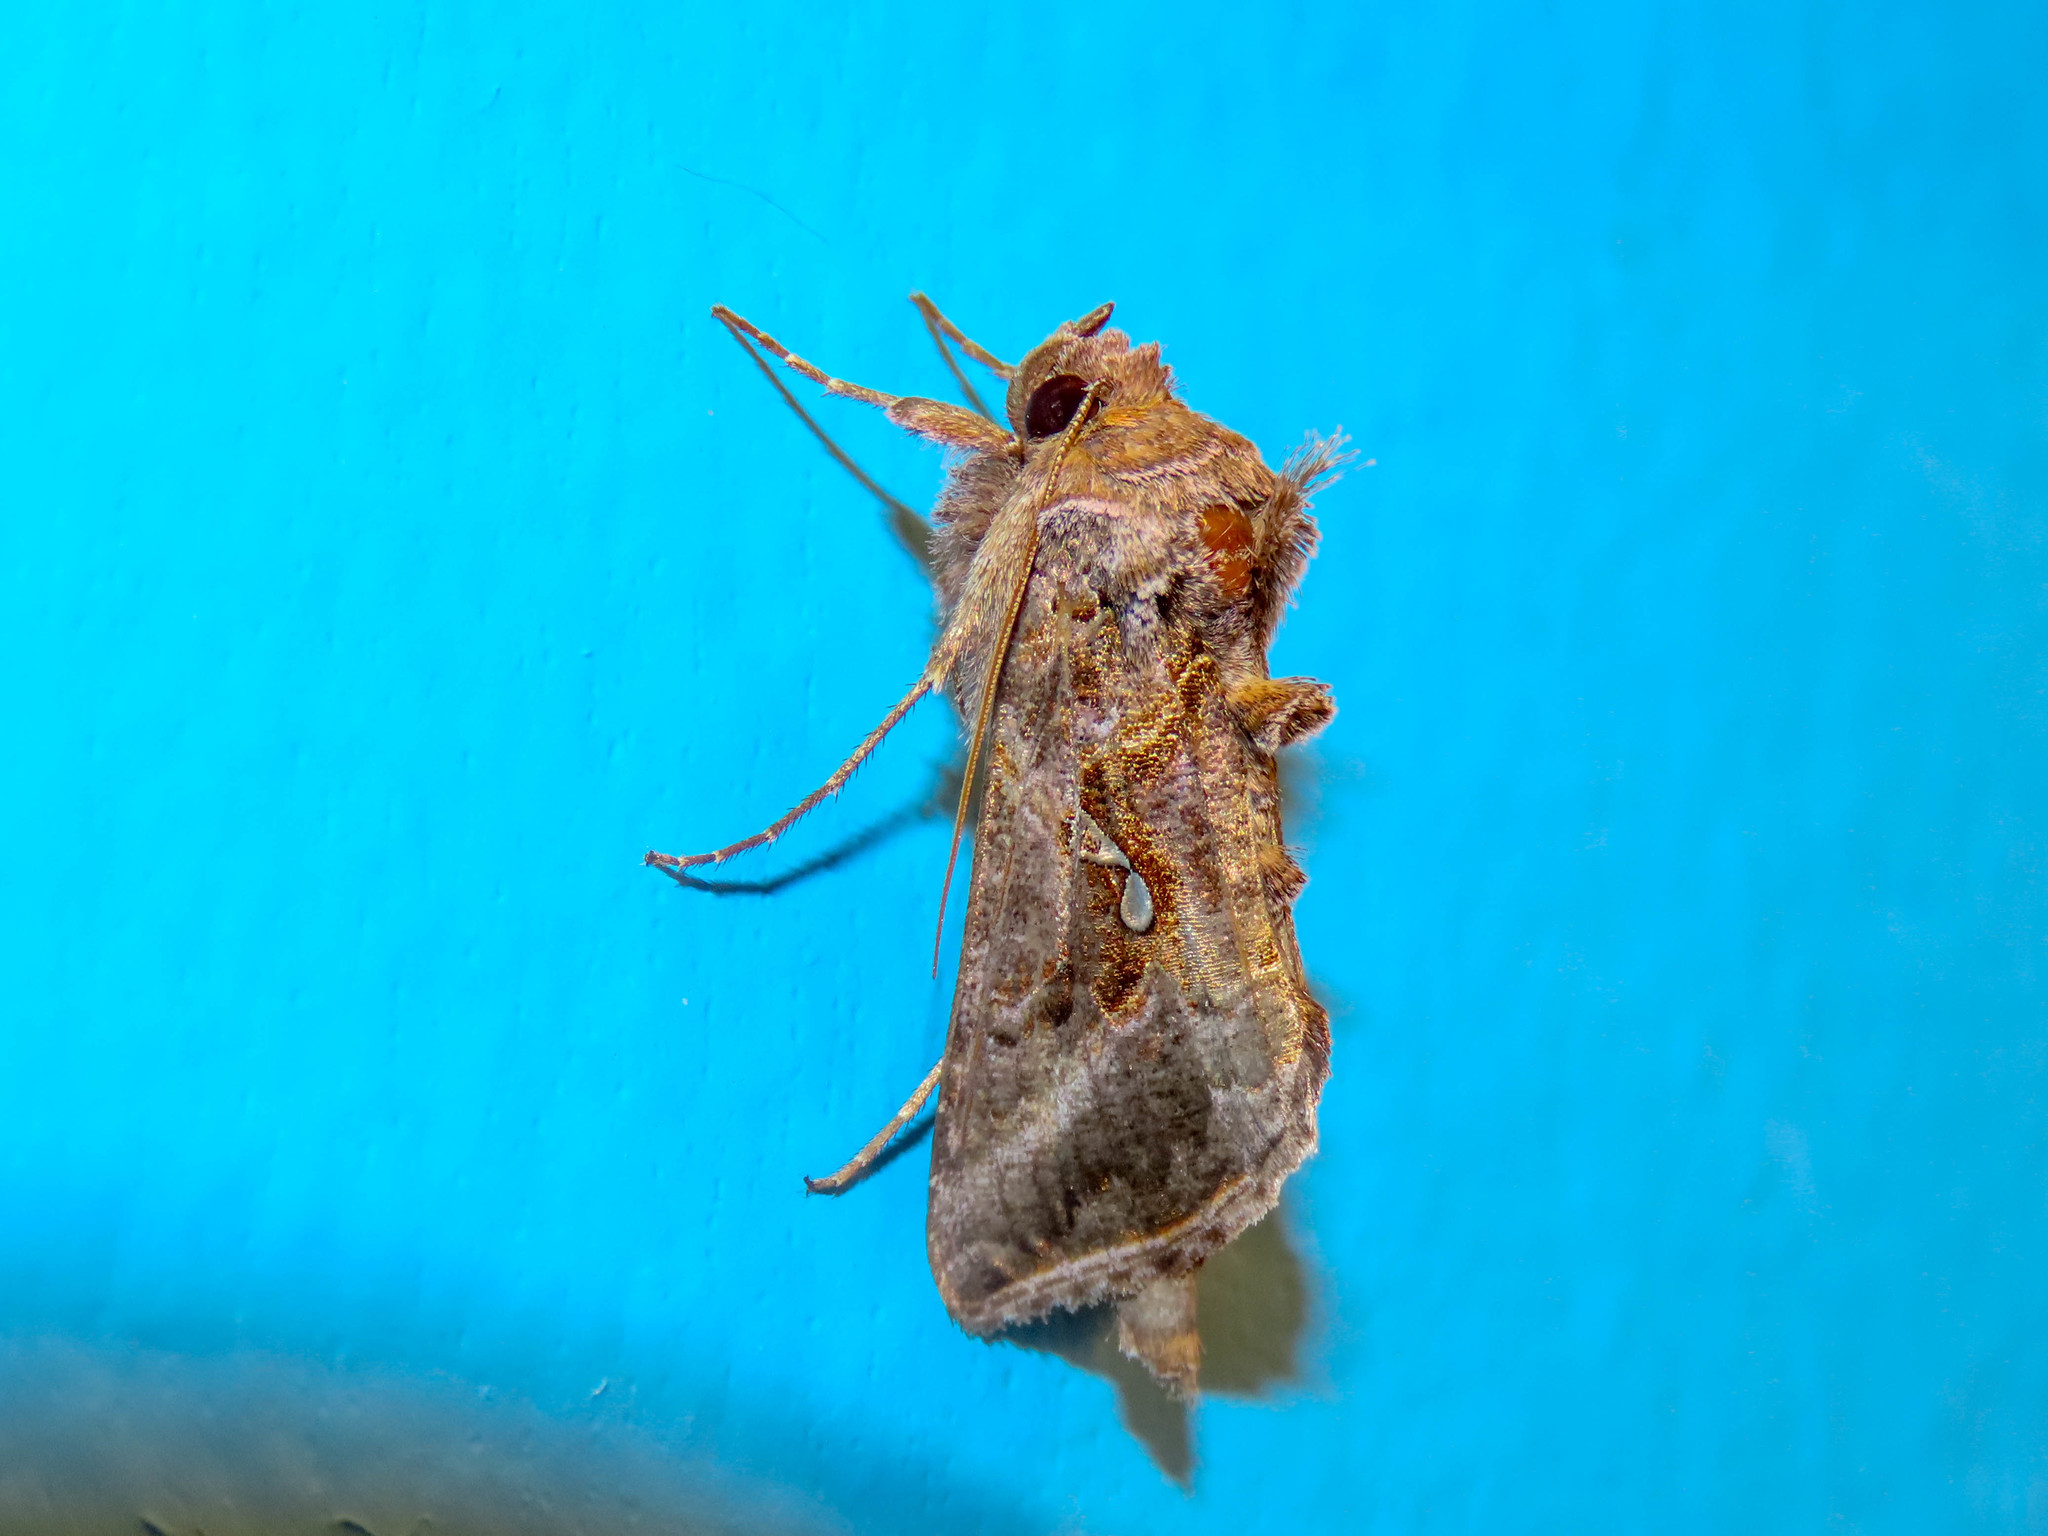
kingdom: Animalia
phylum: Arthropoda
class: Insecta
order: Lepidoptera
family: Noctuidae
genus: Autographa
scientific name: Autographa precationis
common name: Common looper moth
